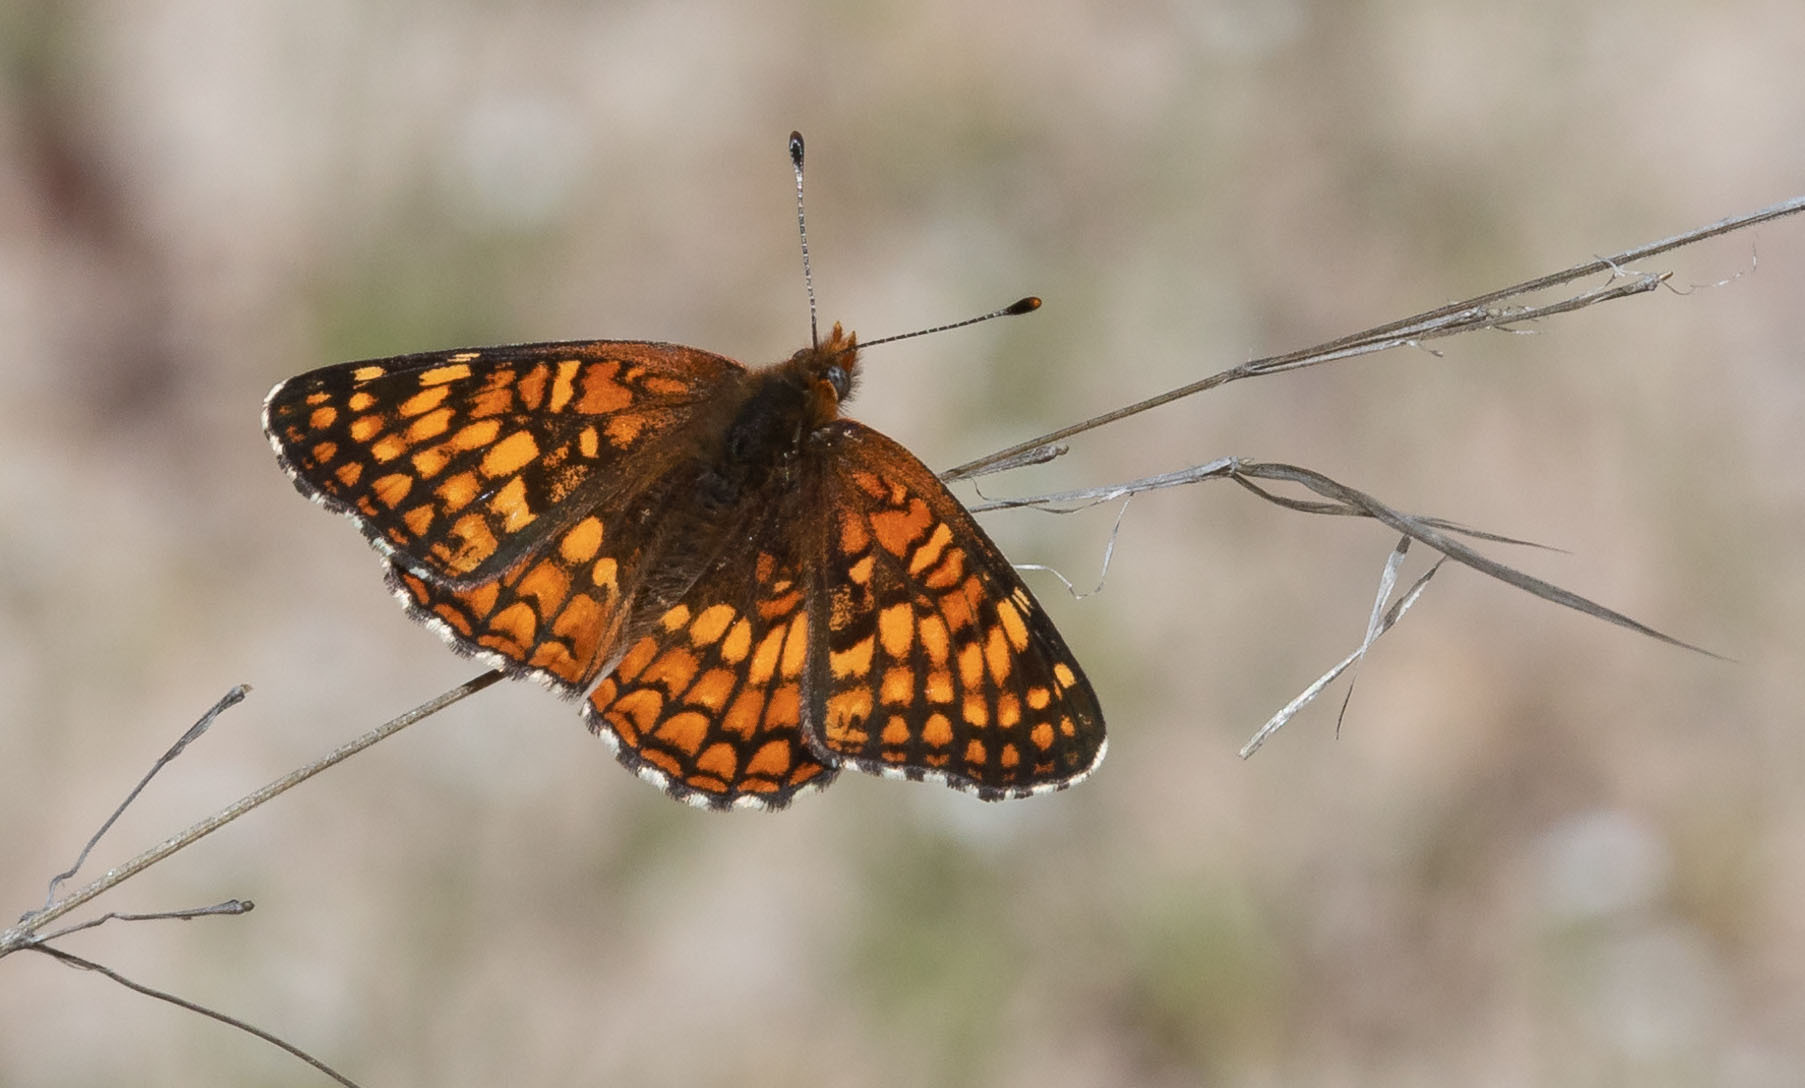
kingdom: Animalia
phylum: Arthropoda
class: Insecta
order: Lepidoptera
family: Nymphalidae
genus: Chlosyne
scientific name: Chlosyne gabbii
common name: Gabb's checkerspot
